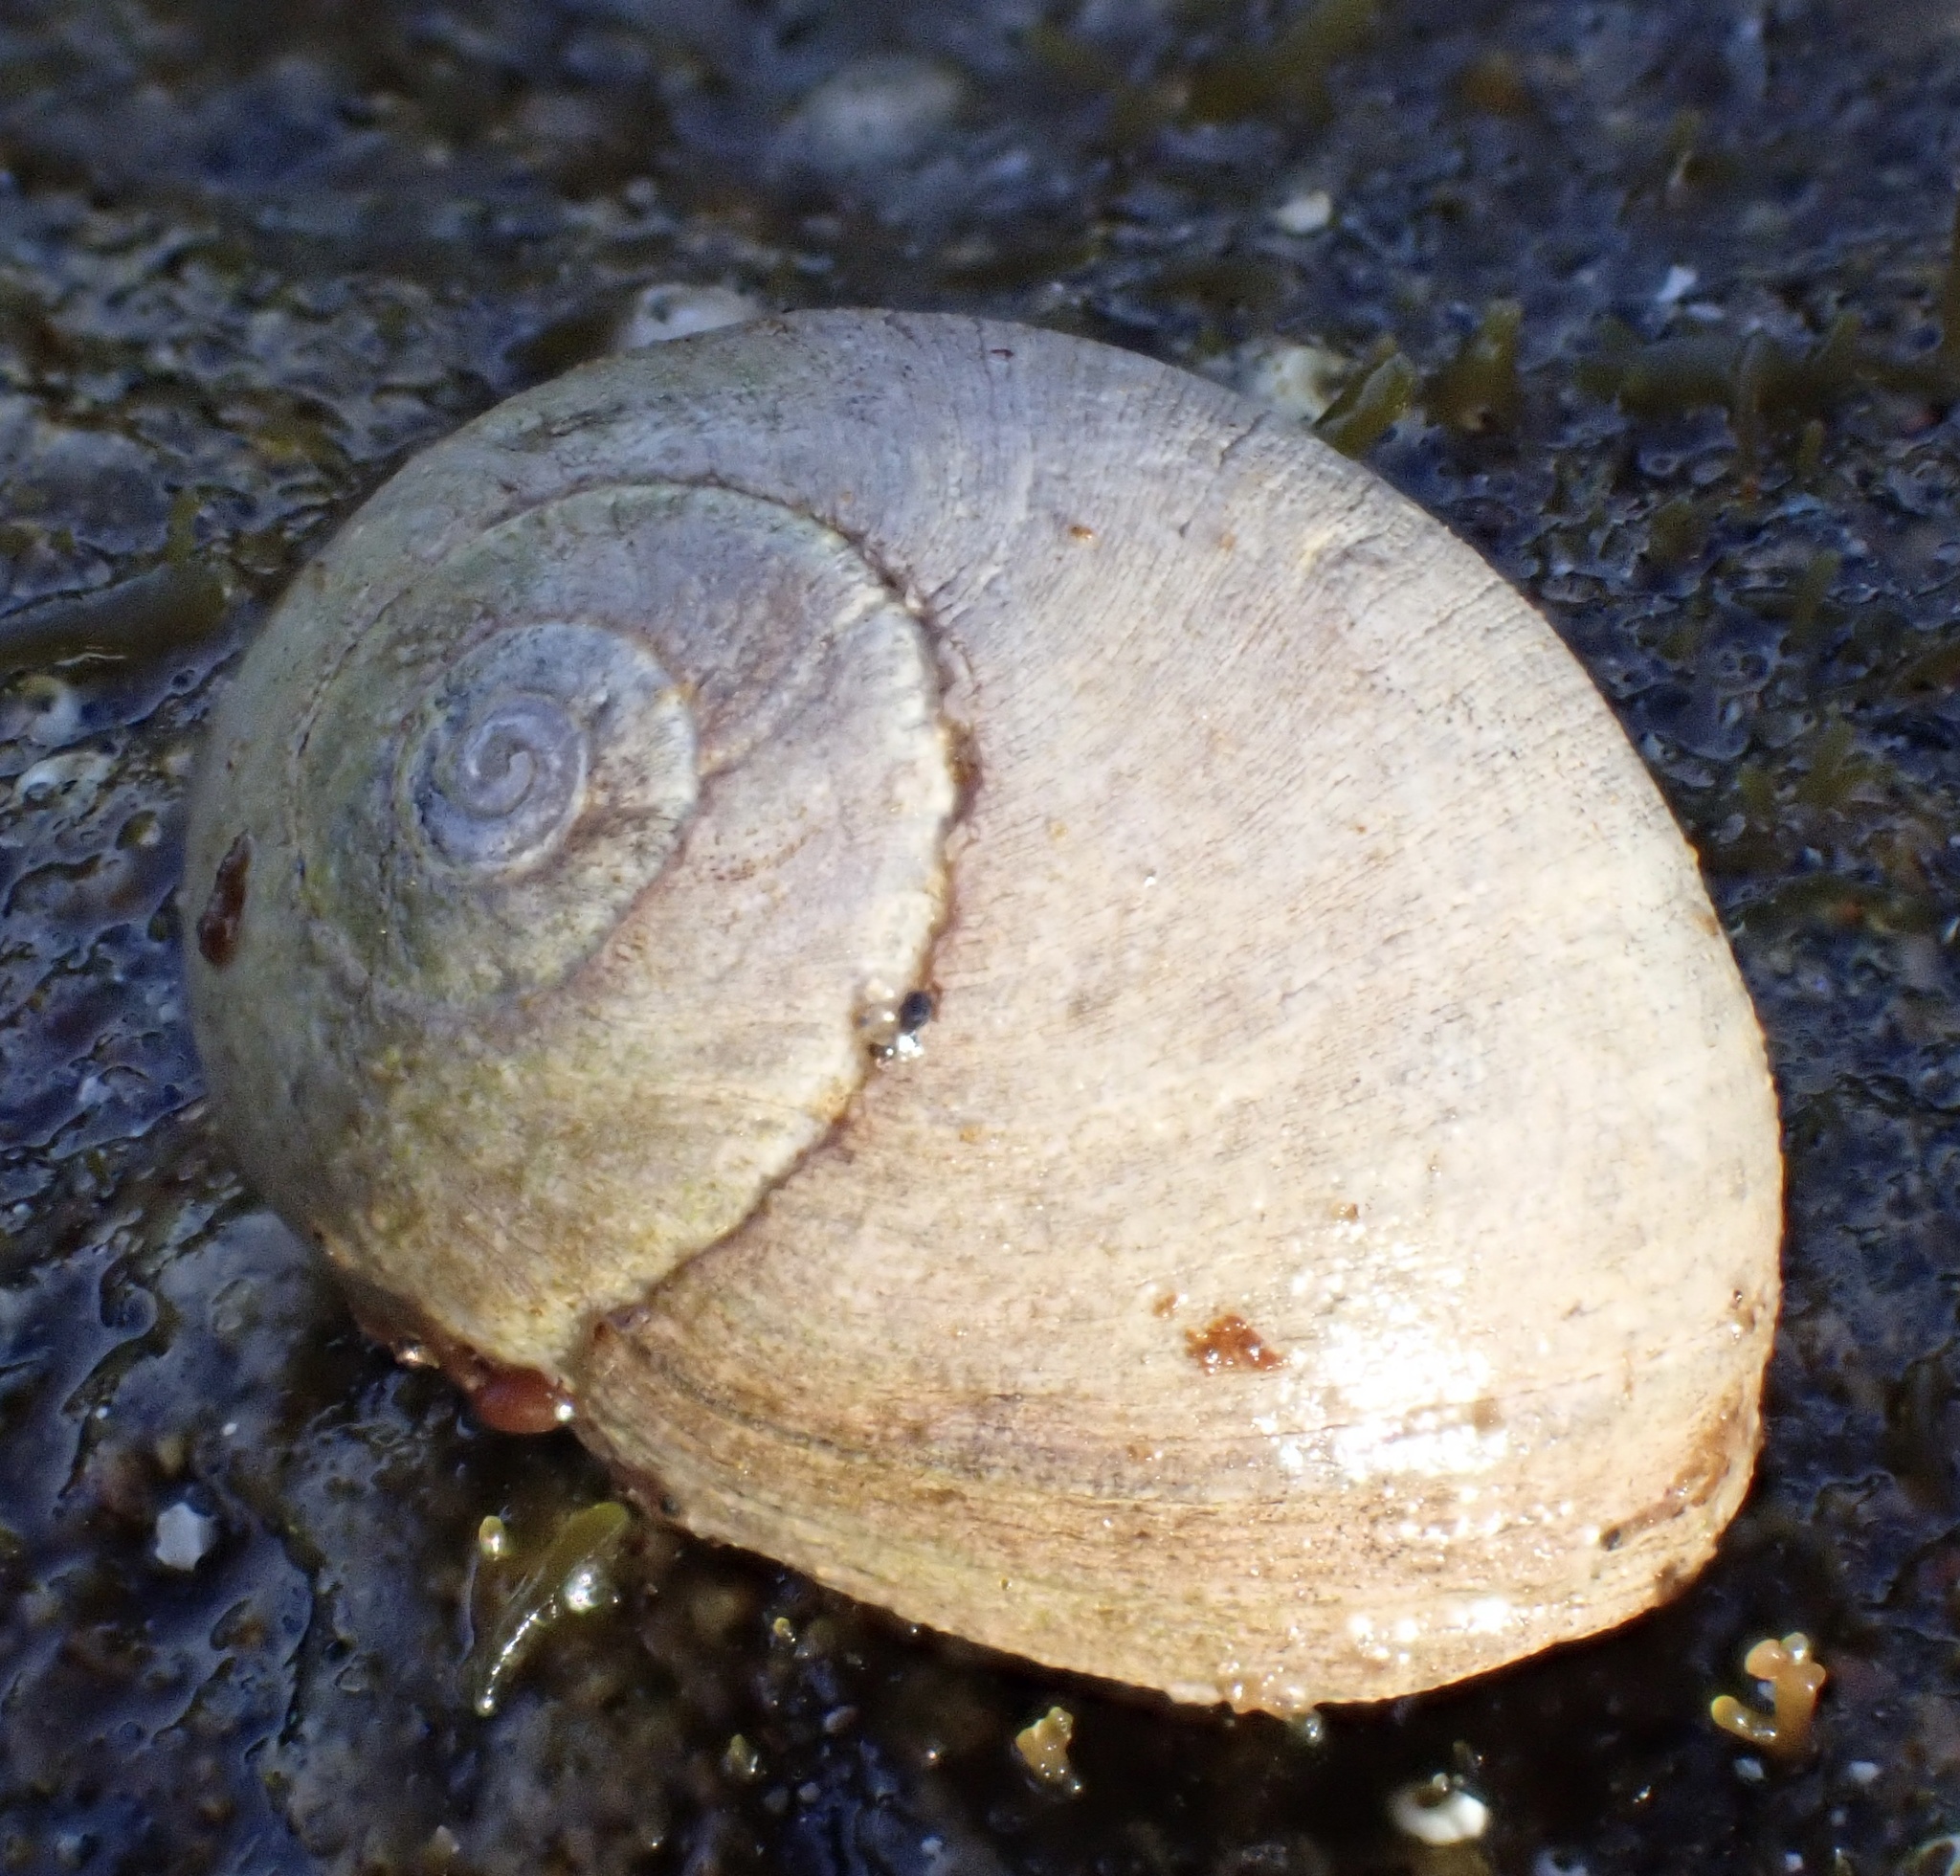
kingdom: Animalia
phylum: Mollusca
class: Gastropoda
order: Littorinimorpha
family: Littorinidae
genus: Littorina
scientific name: Littorina
